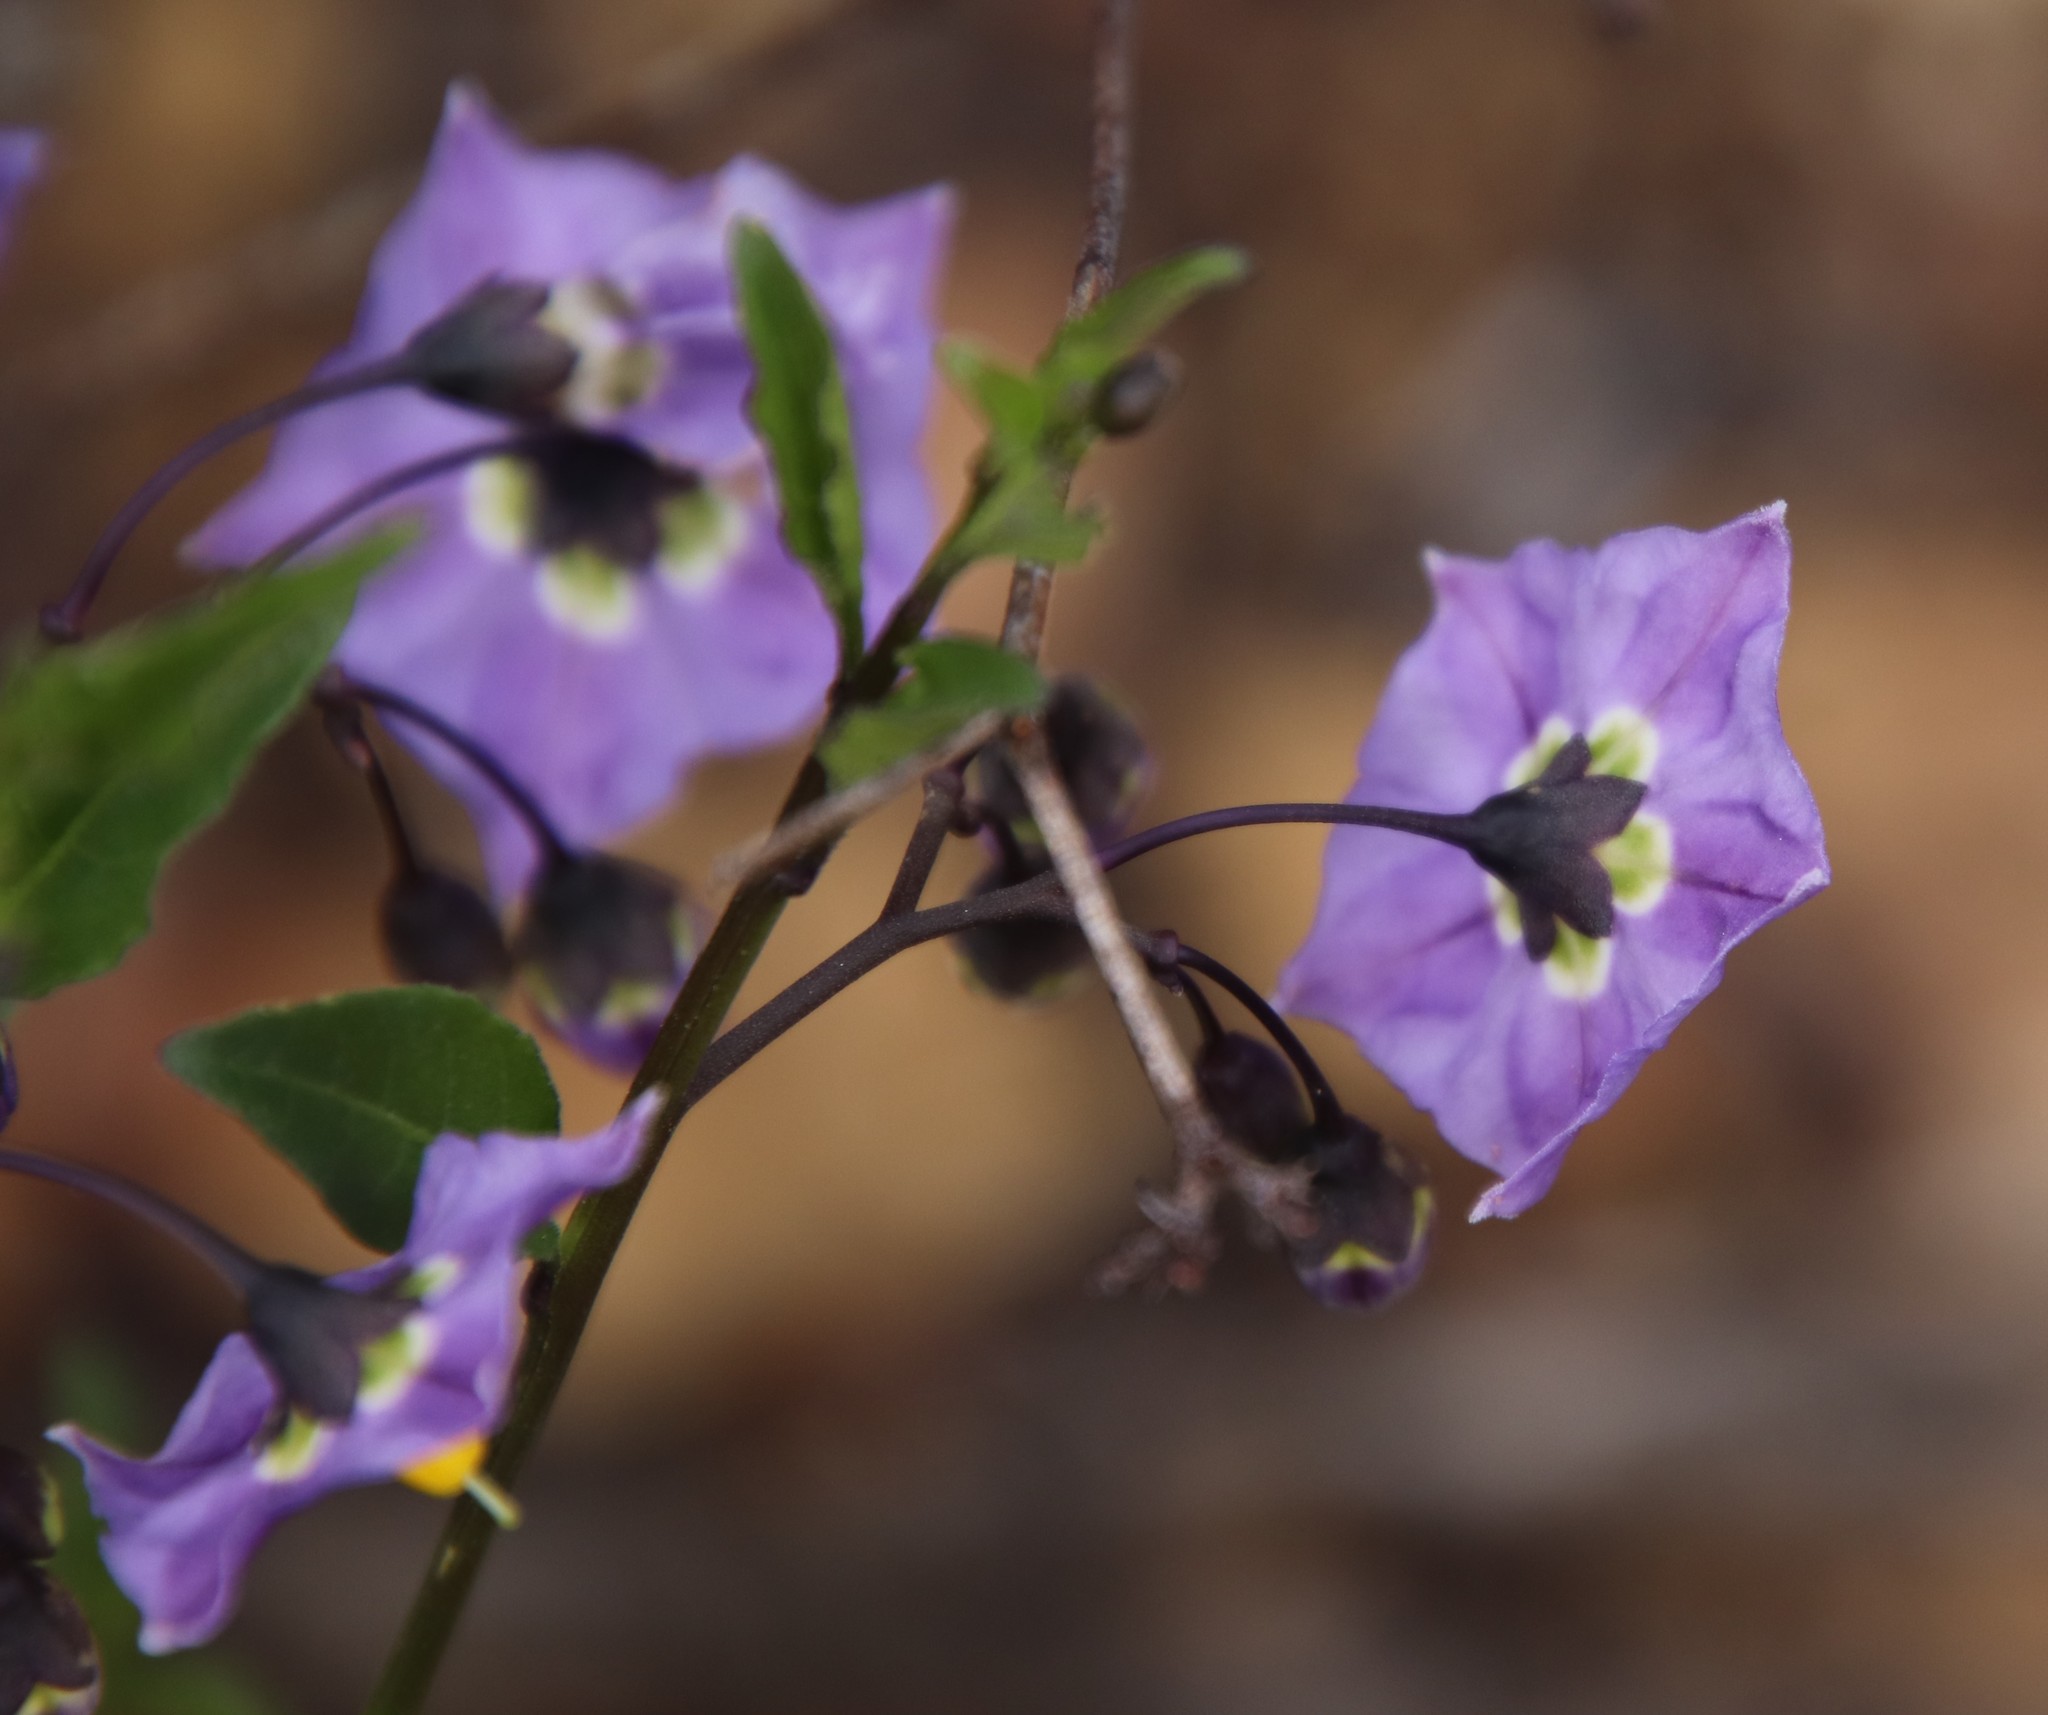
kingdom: Plantae
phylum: Tracheophyta
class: Magnoliopsida
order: Solanales
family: Solanaceae
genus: Solanum
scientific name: Solanum umbelliferum
